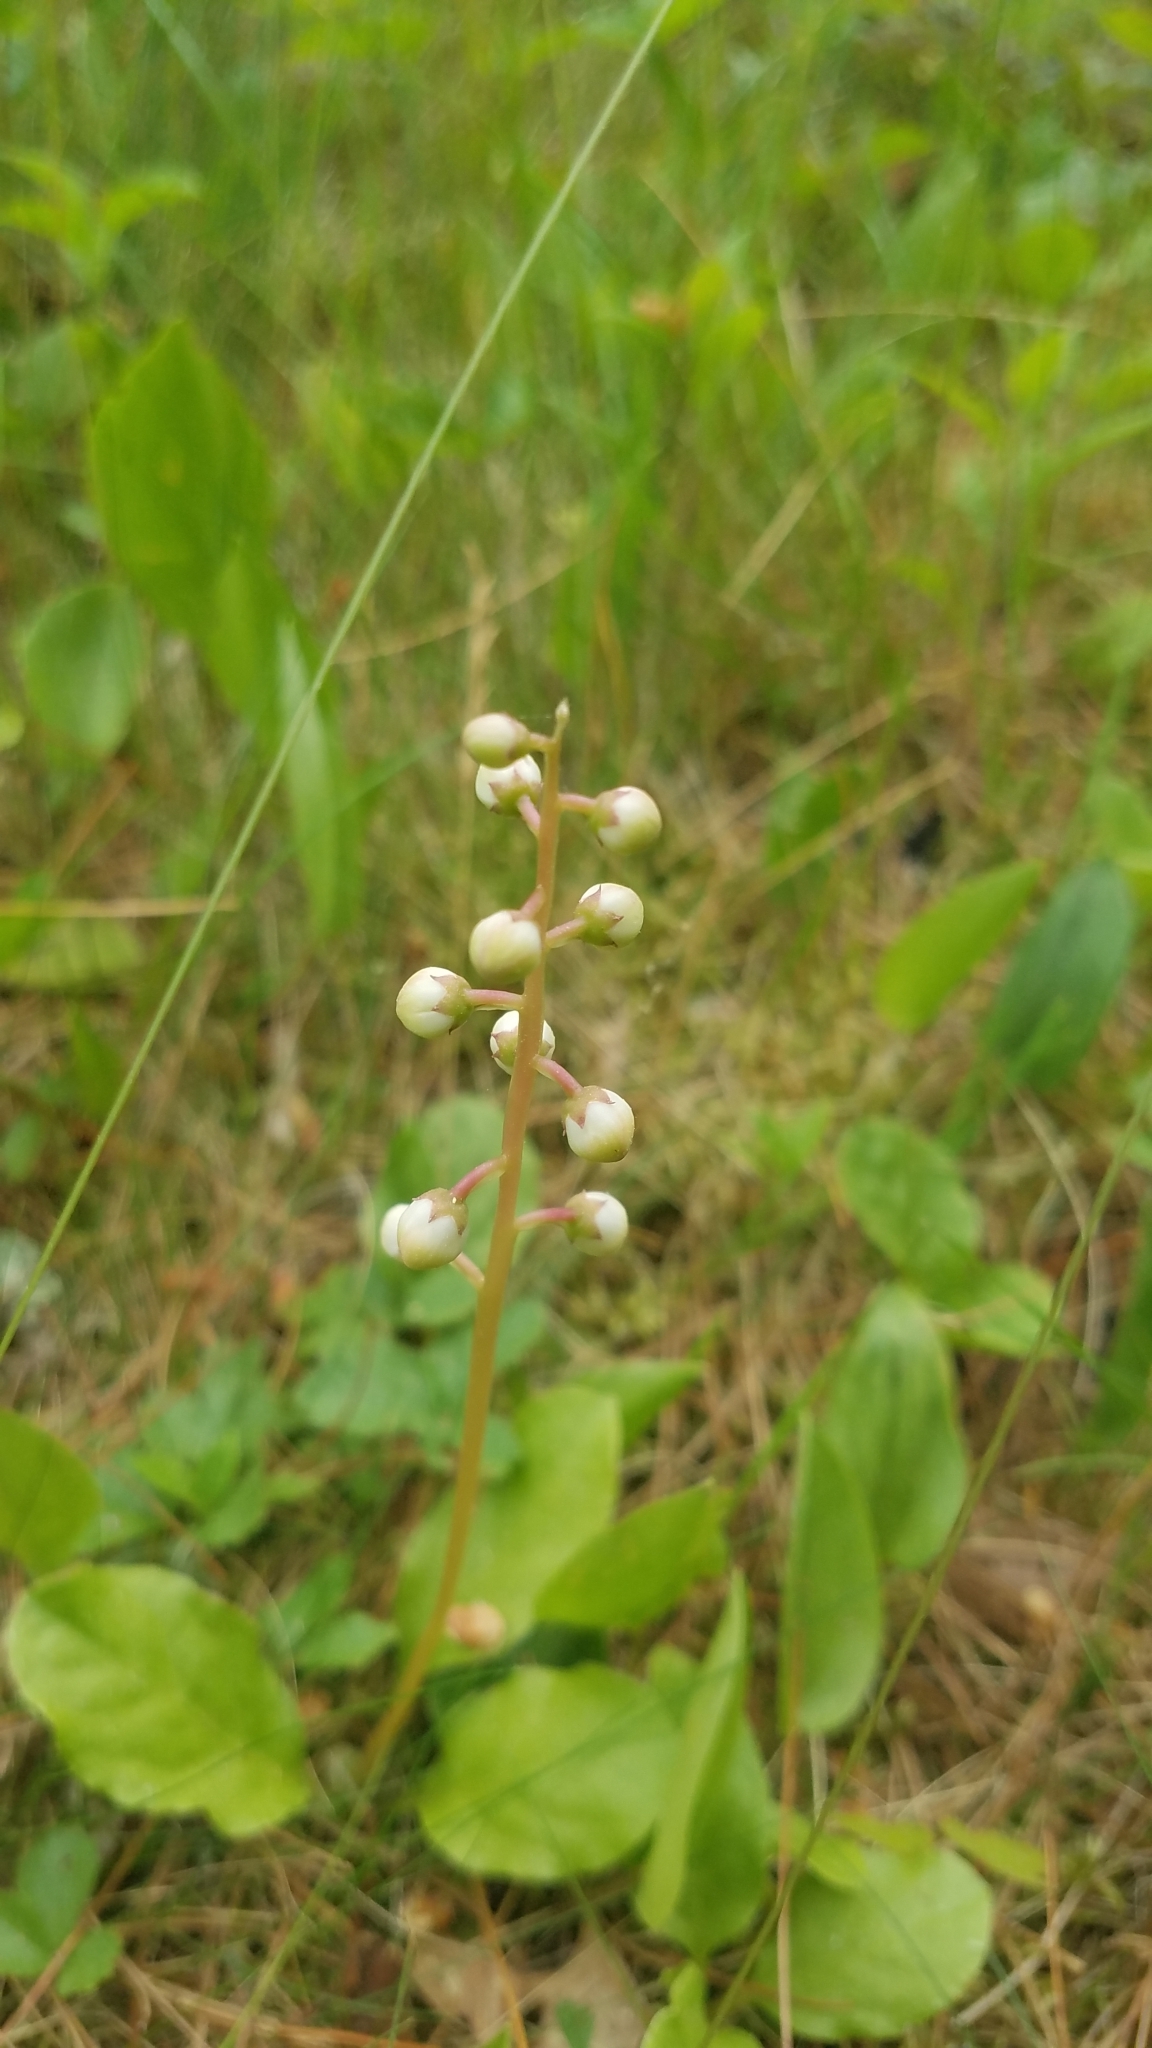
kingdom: Plantae
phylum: Tracheophyta
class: Magnoliopsida
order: Ericales
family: Ericaceae
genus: Pyrola
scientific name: Pyrola elliptica
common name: Shinleaf
